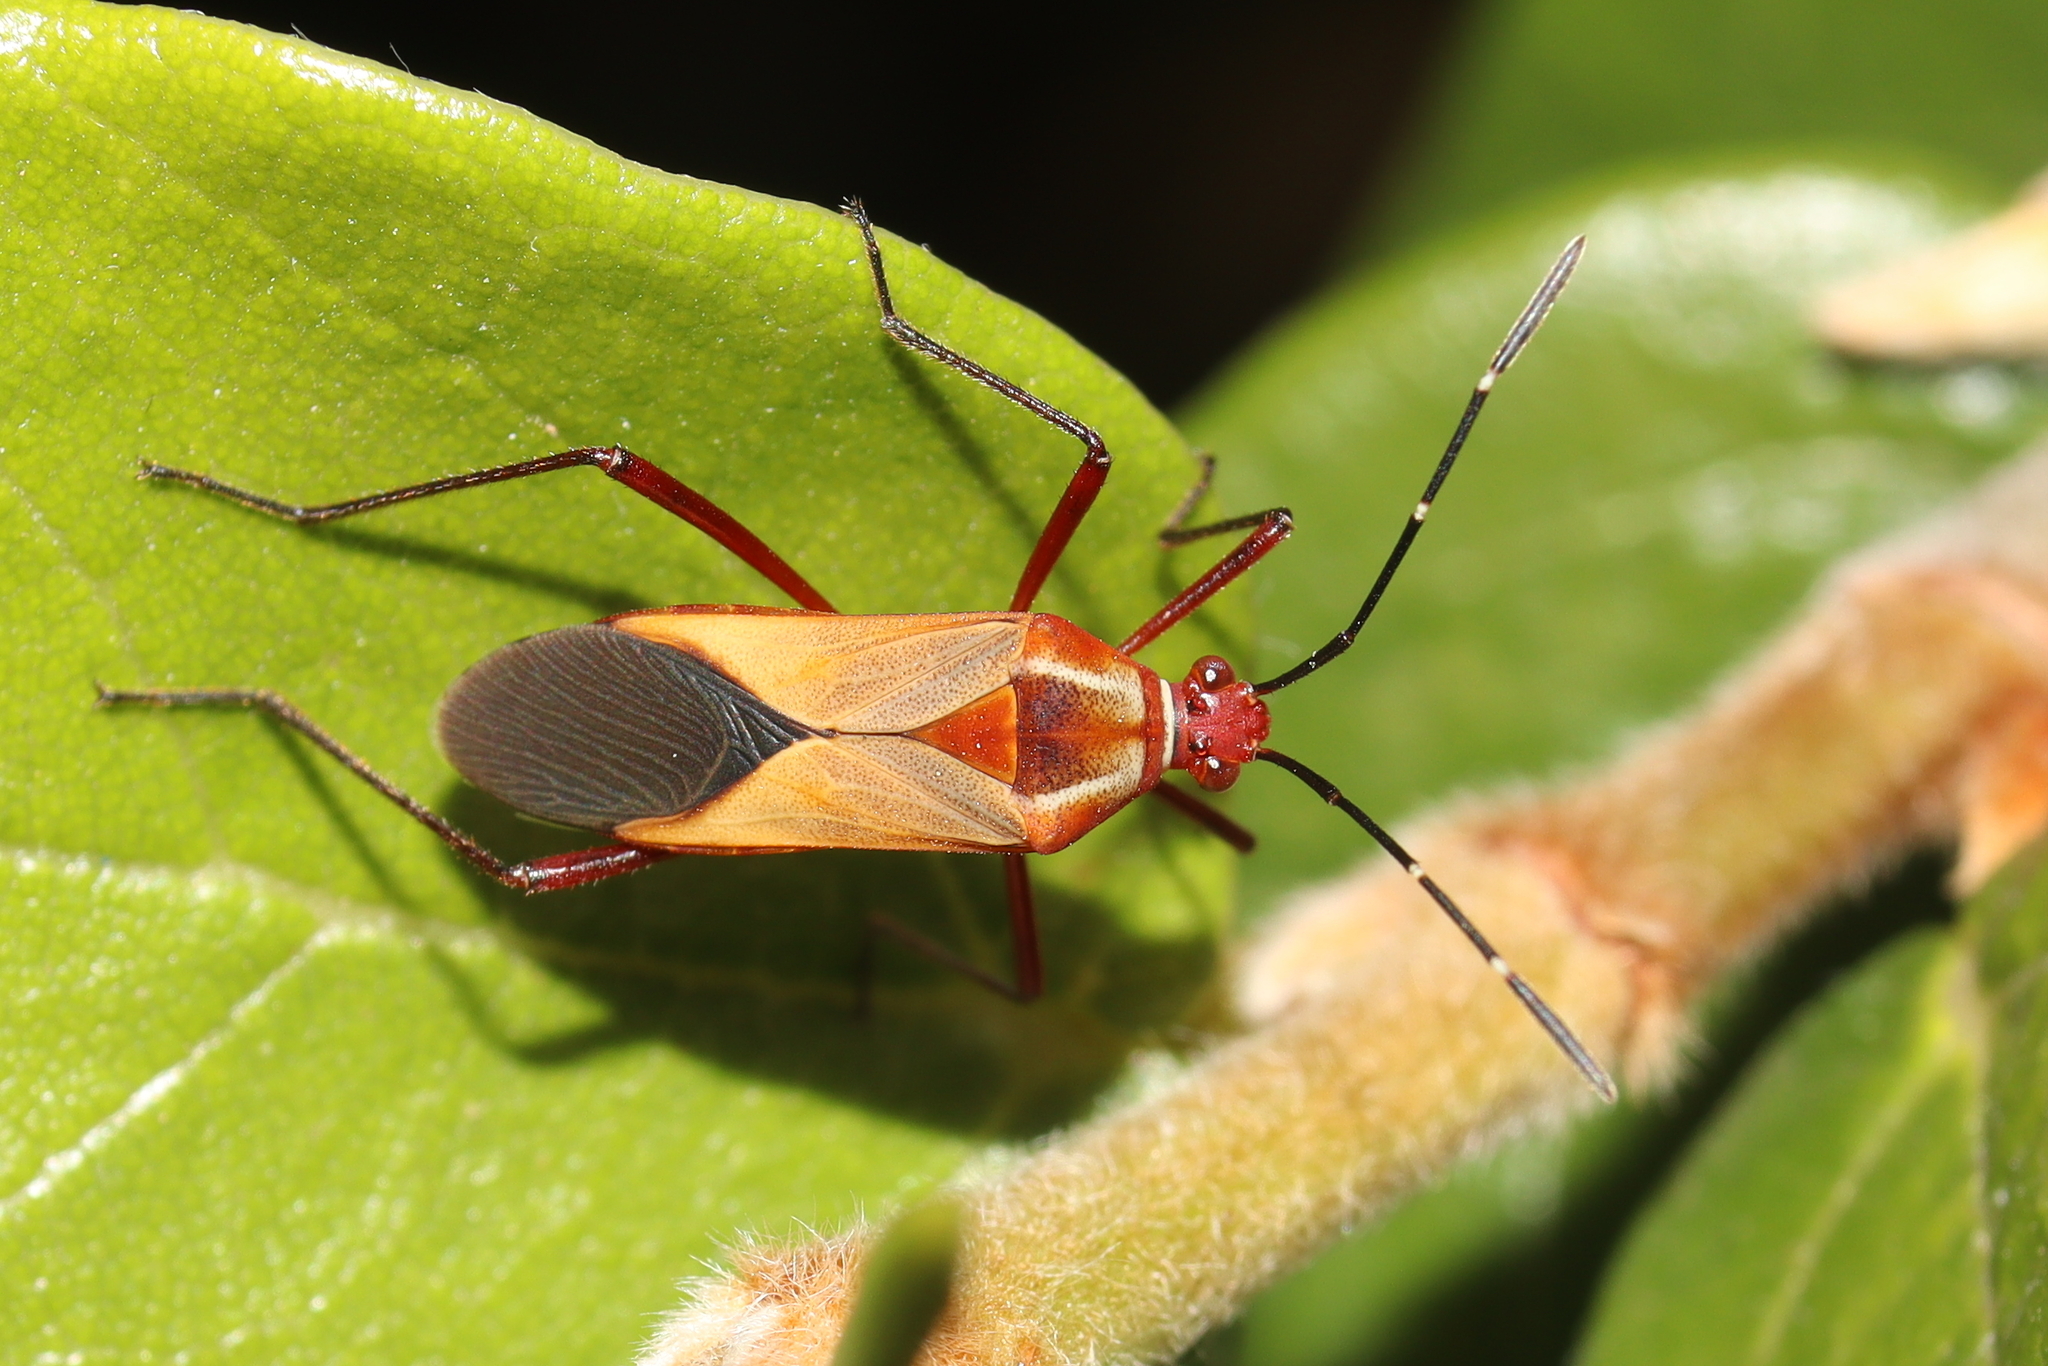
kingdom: Animalia
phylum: Arthropoda
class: Insecta
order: Hemiptera
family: Coreidae
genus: Hypselonotus
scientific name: Hypselonotus interruptus
